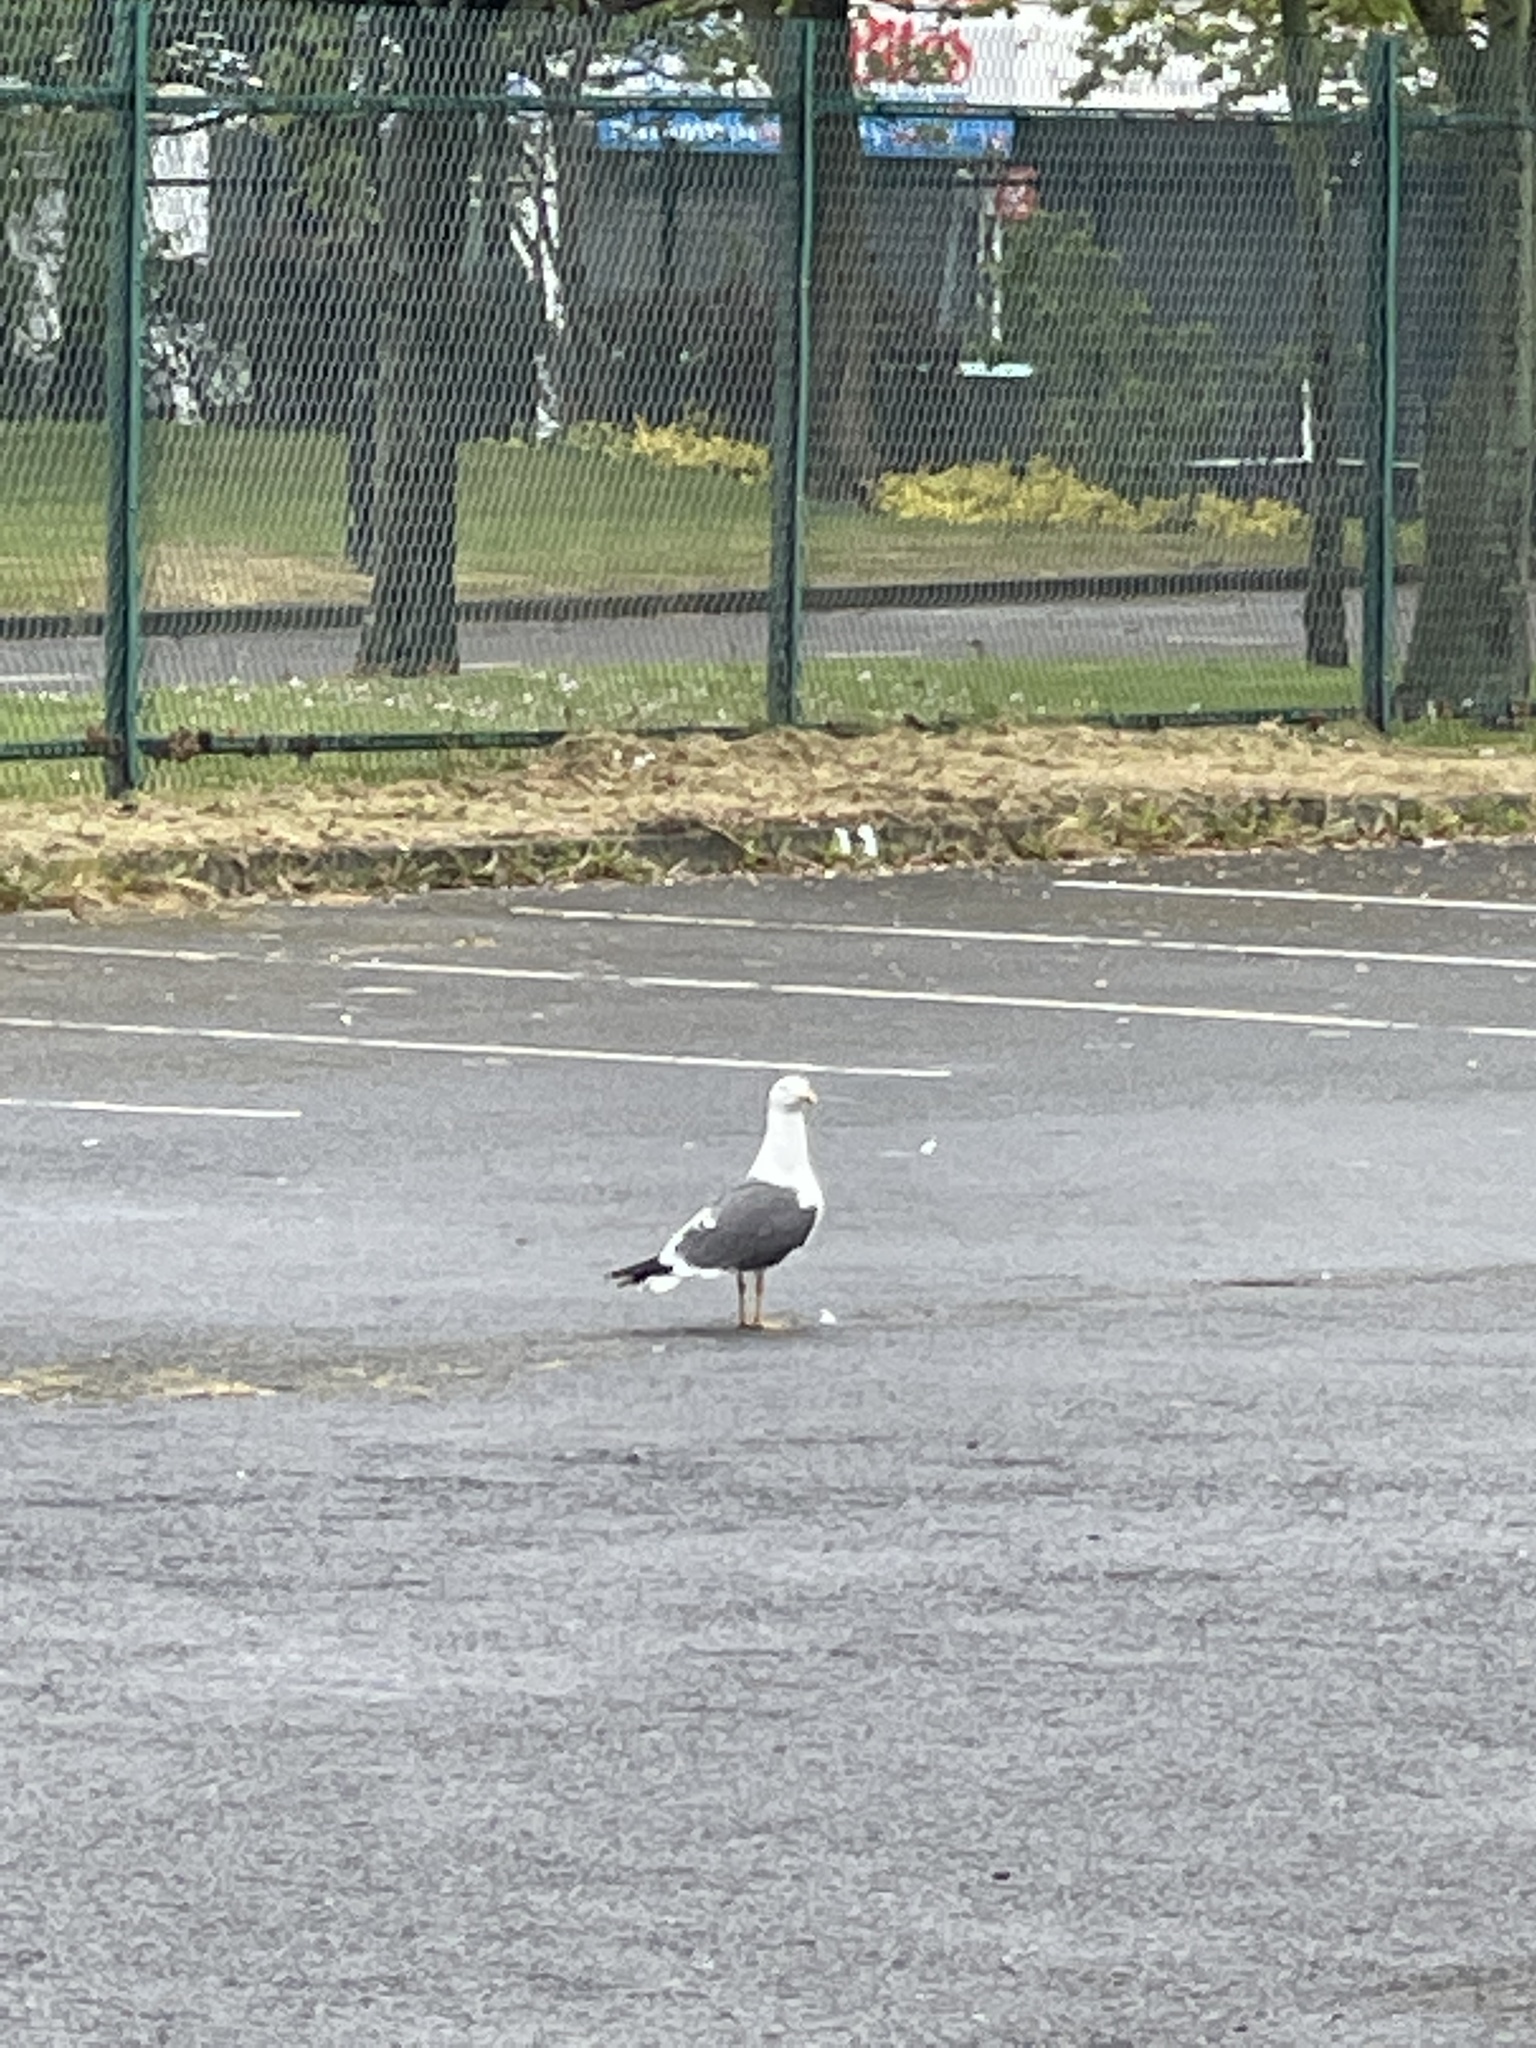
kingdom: Animalia
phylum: Chordata
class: Aves
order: Charadriiformes
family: Laridae
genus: Larus
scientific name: Larus fuscus
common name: Lesser black-backed gull
